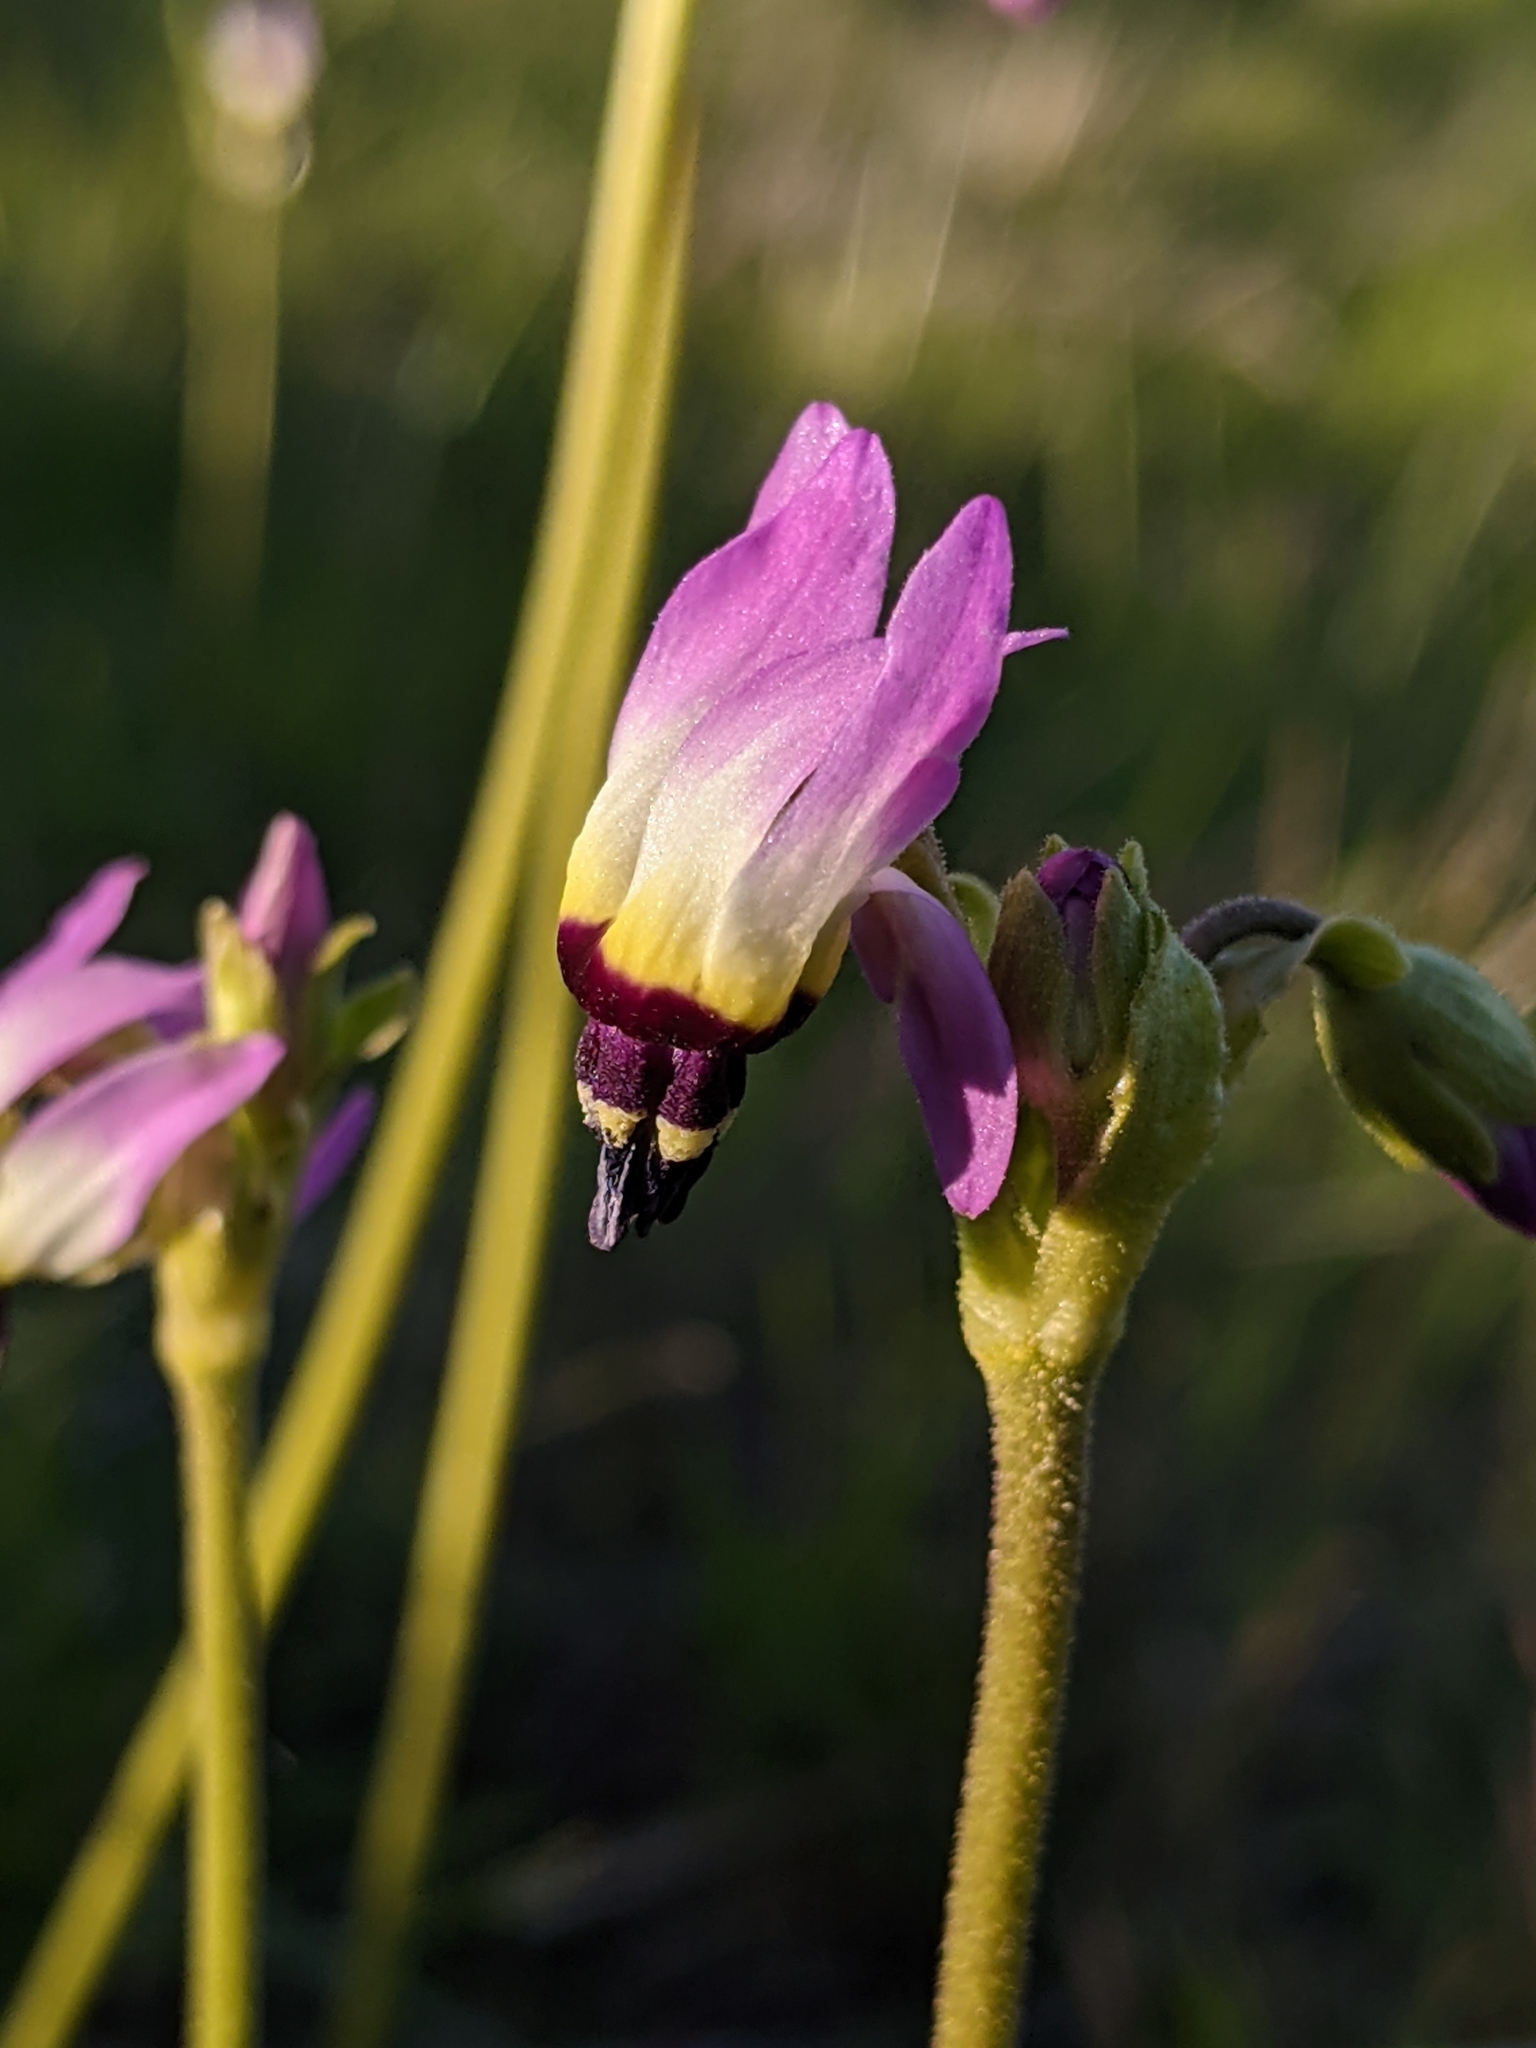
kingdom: Plantae
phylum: Tracheophyta
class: Magnoliopsida
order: Ericales
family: Primulaceae
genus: Dodecatheon
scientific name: Dodecatheon clevelandii
